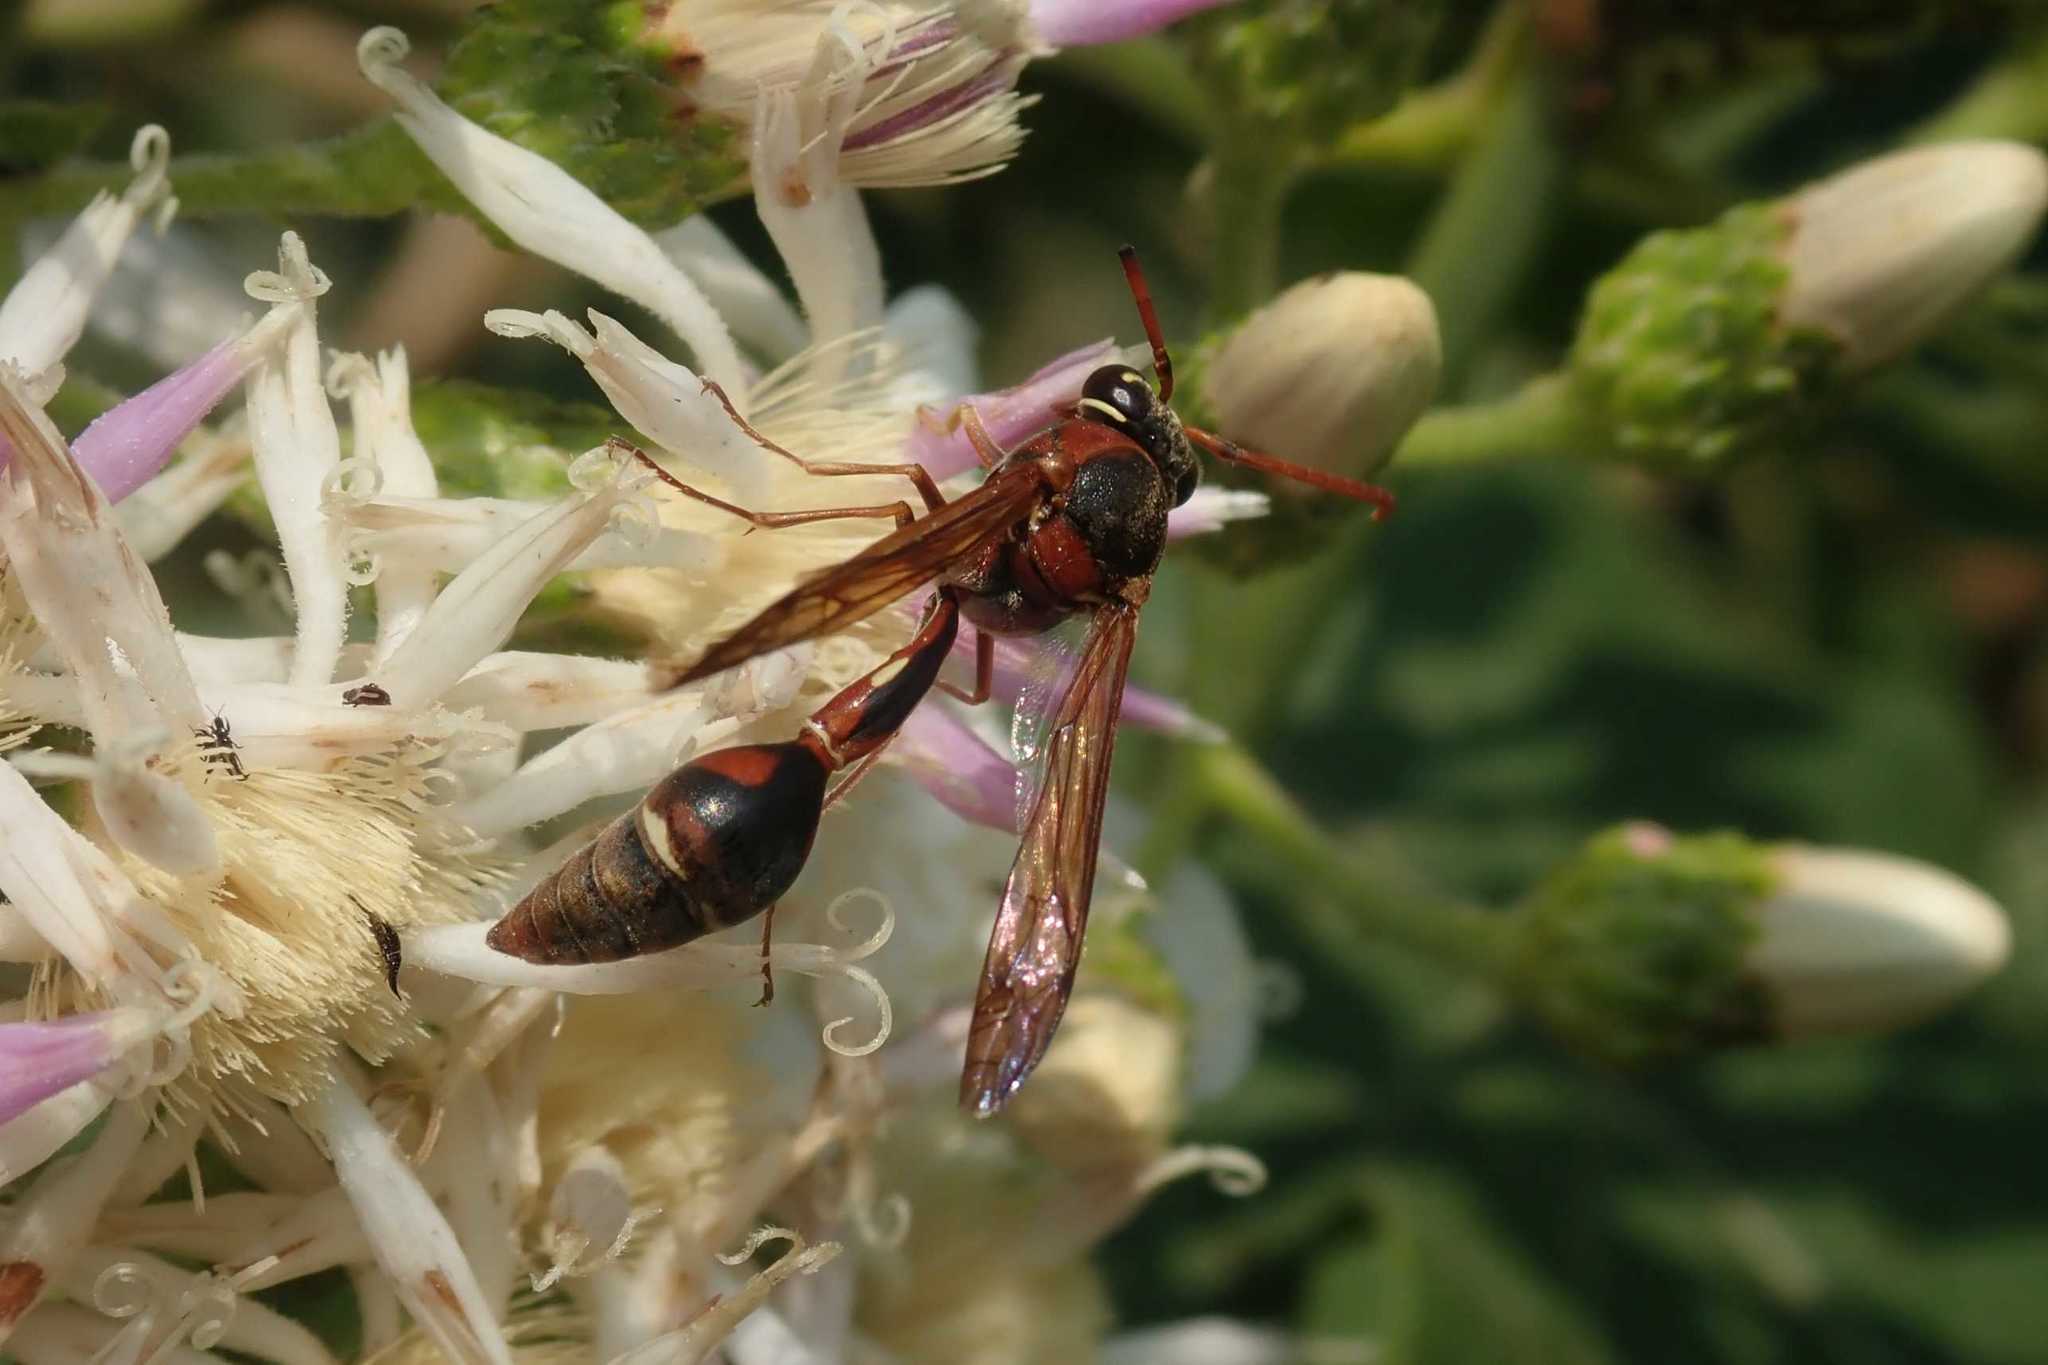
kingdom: Animalia
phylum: Arthropoda
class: Insecta
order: Hymenoptera
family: Eumenidae
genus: Afreumenes
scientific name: Afreumenes aethiopicus
